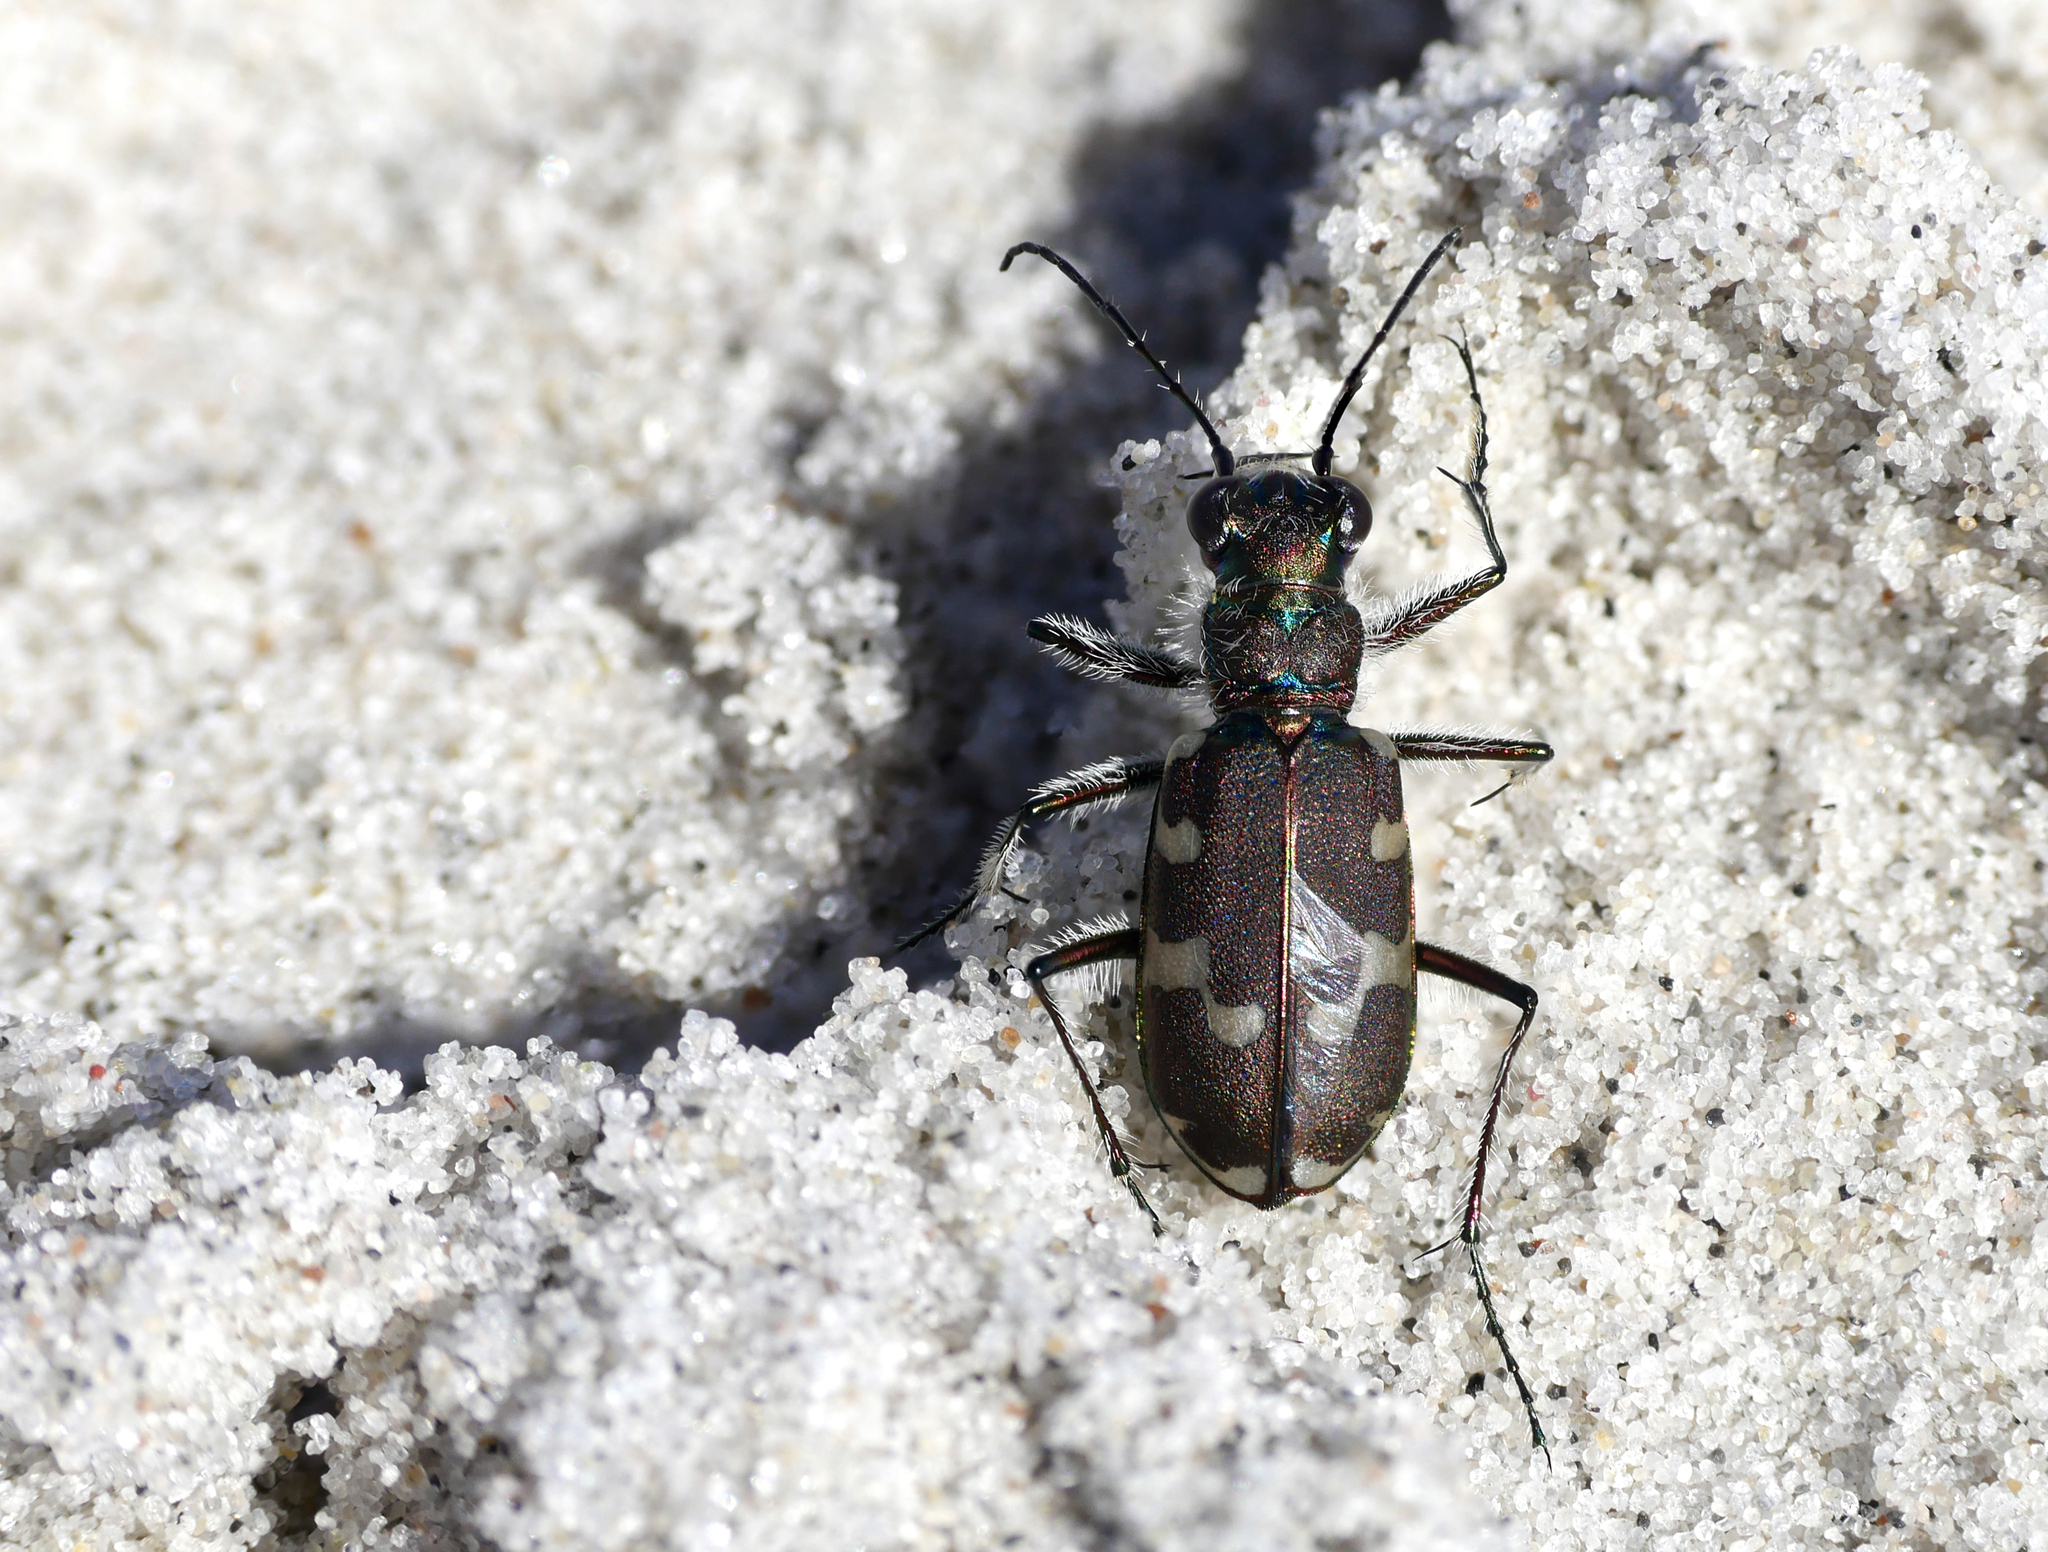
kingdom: Animalia
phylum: Arthropoda
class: Insecta
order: Coleoptera
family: Carabidae
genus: Cicindela
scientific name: Cicindela maritima
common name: Dune tiger beetle
